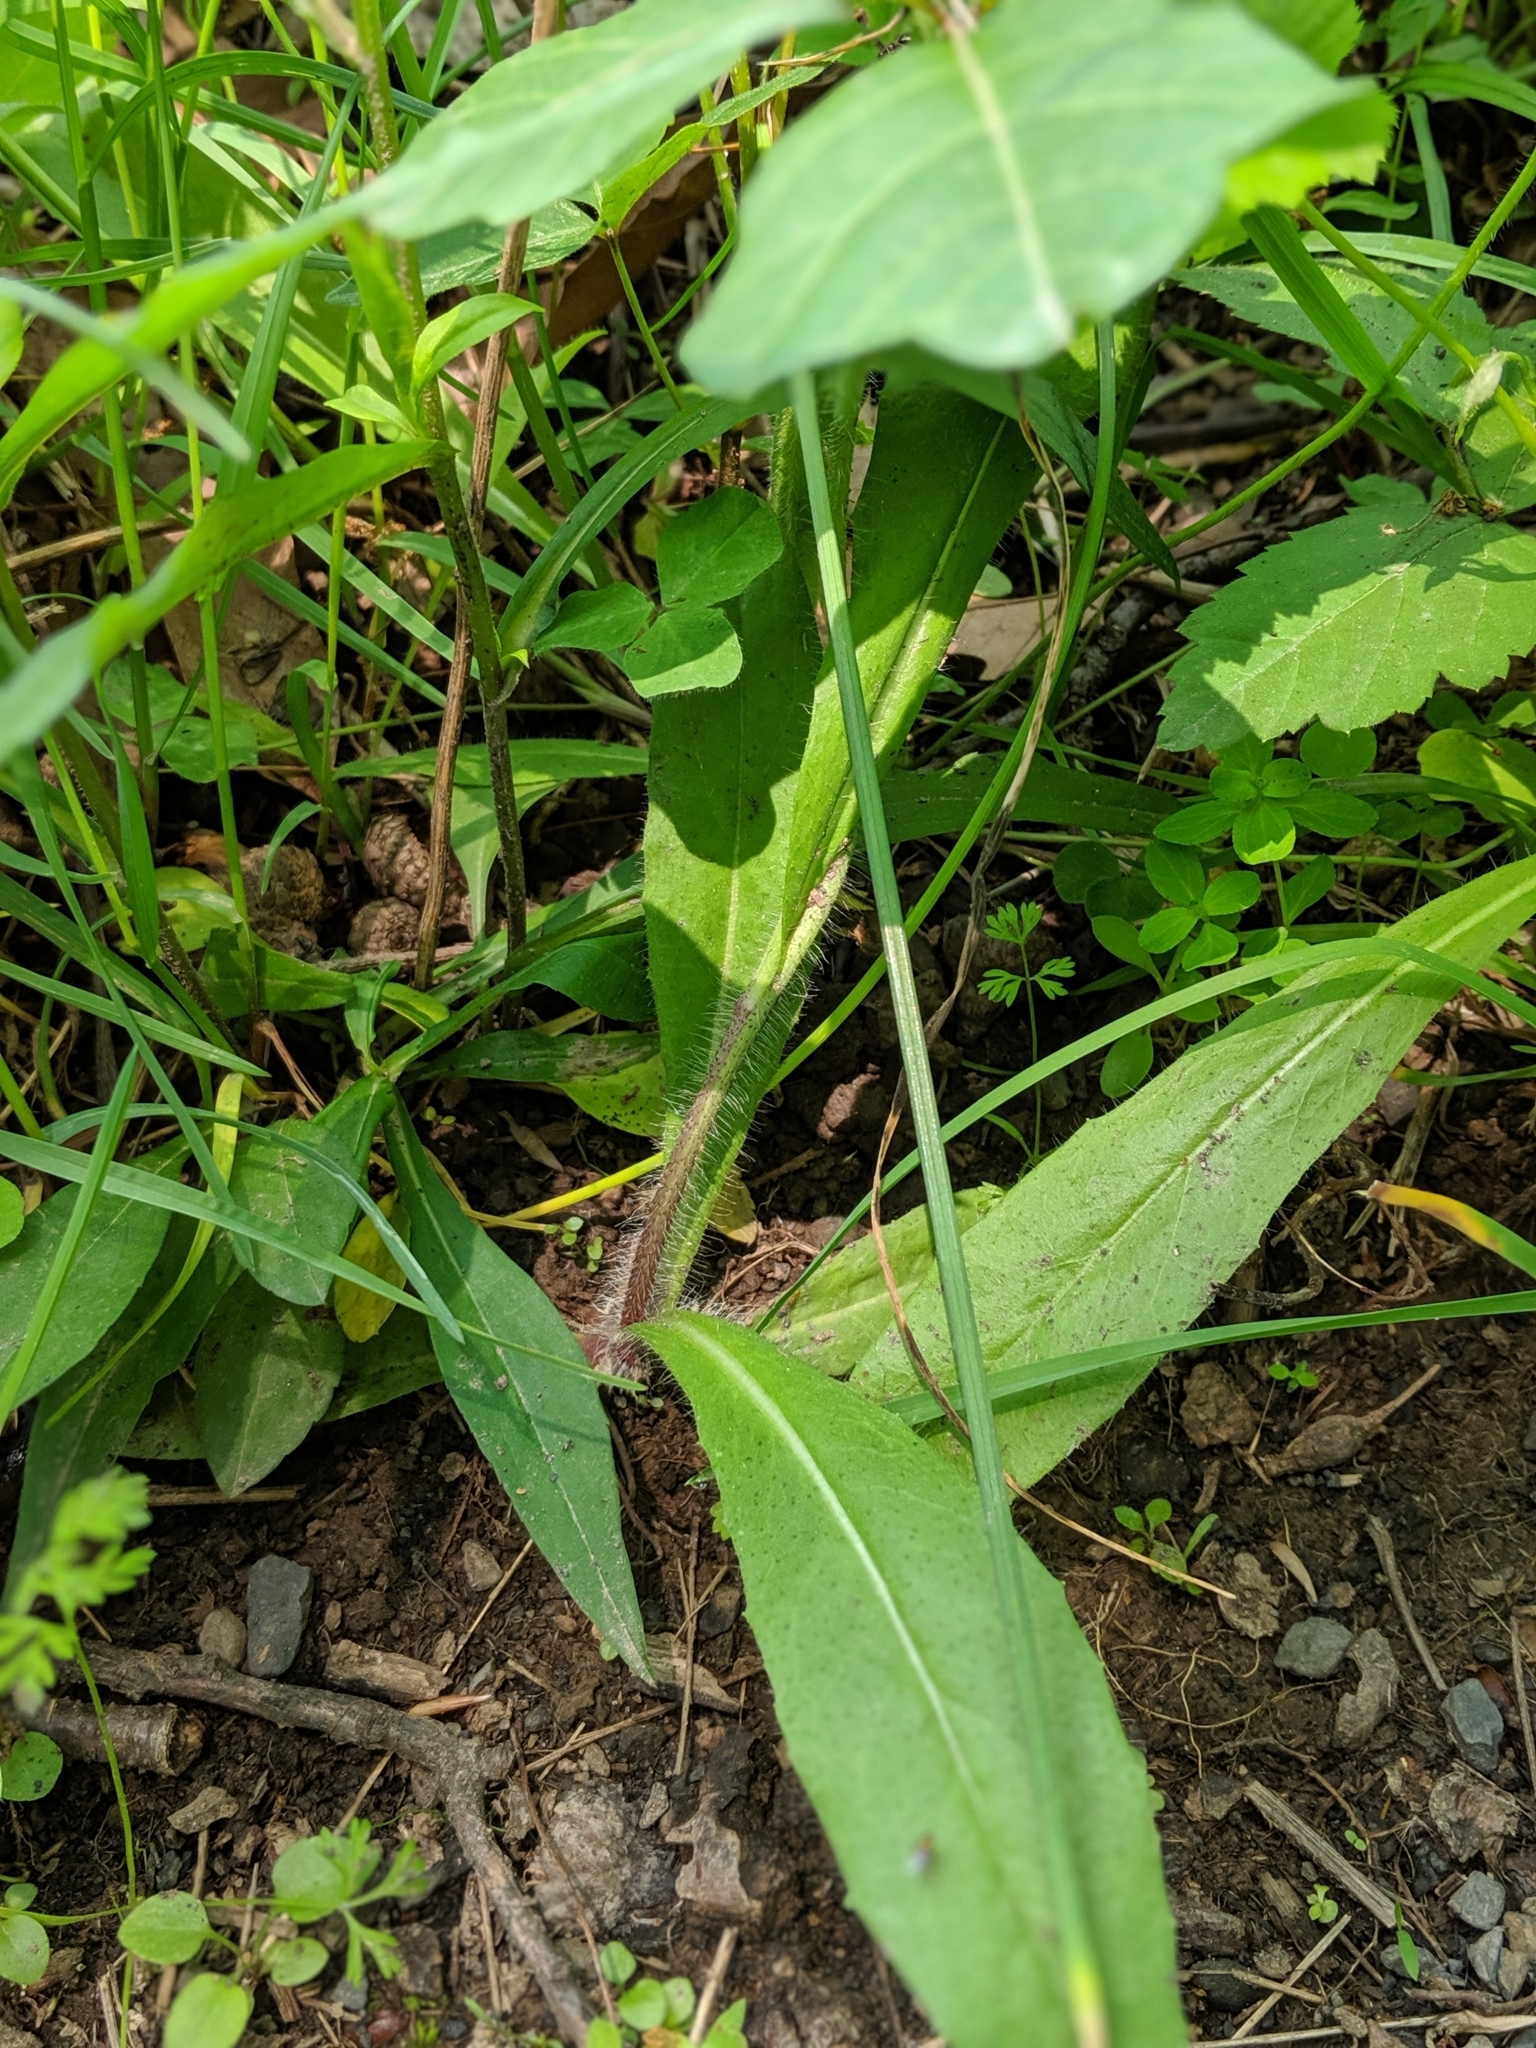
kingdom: Plantae
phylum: Tracheophyta
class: Magnoliopsida
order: Asterales
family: Asteraceae
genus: Pilosella
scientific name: Pilosella piloselloides
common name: Glaucous king-devil
